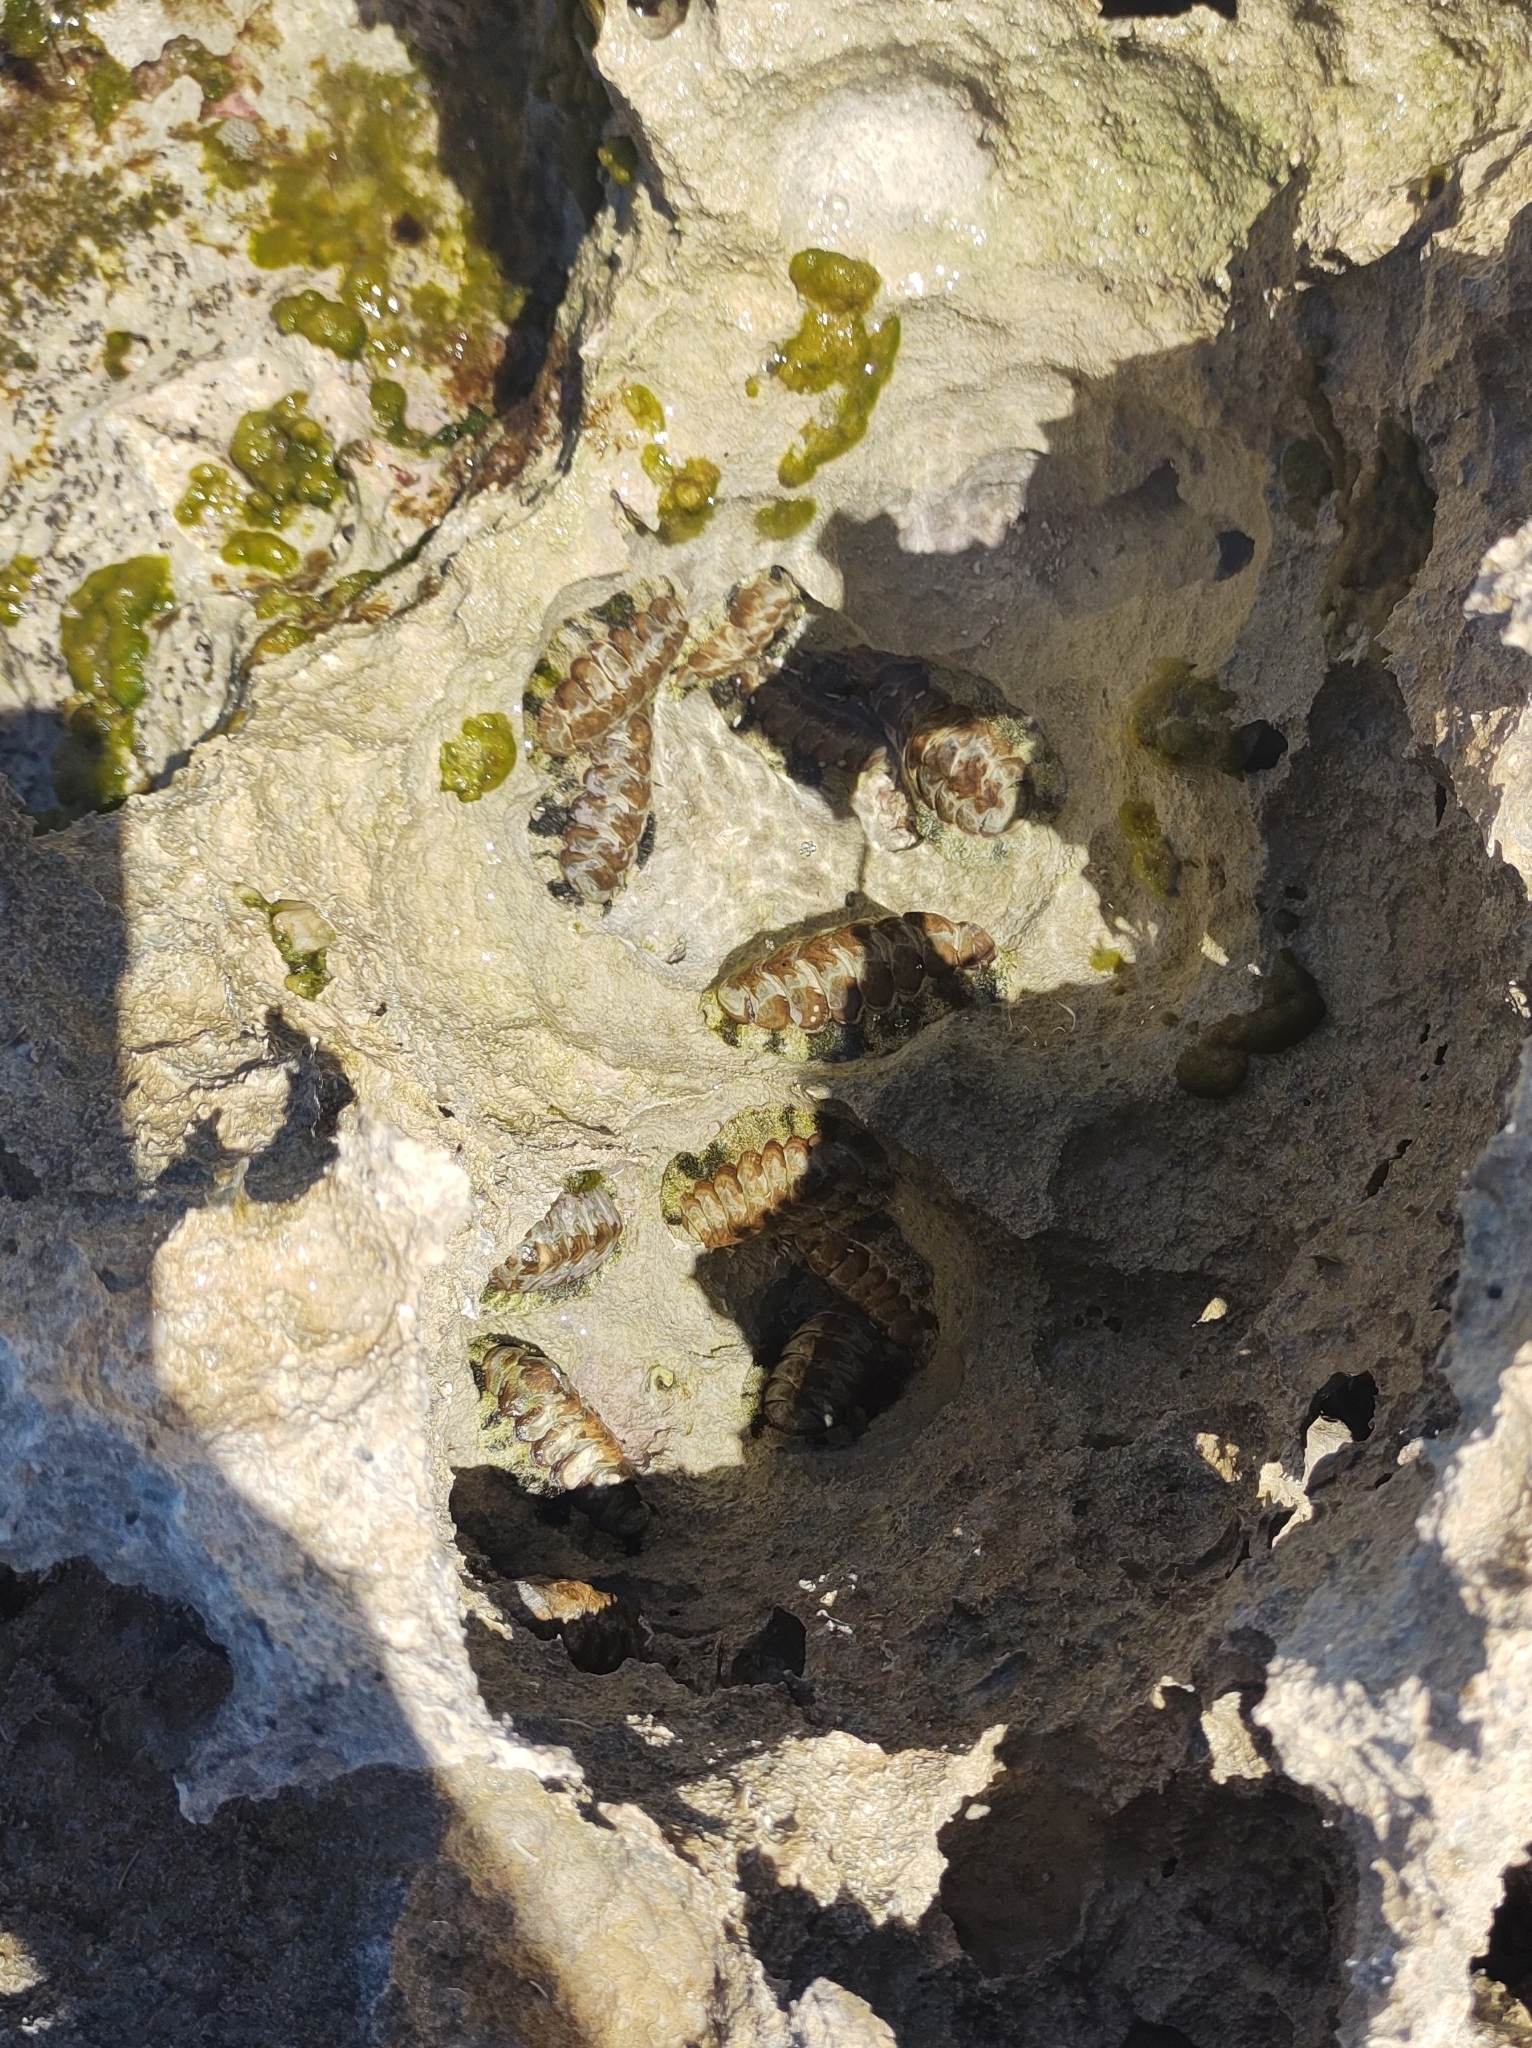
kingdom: Animalia
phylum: Mollusca
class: Polyplacophora
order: Chitonida
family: Chitonidae
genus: Acanthopleura
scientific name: Acanthopleura granulata
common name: West indian fuzzy chiton
